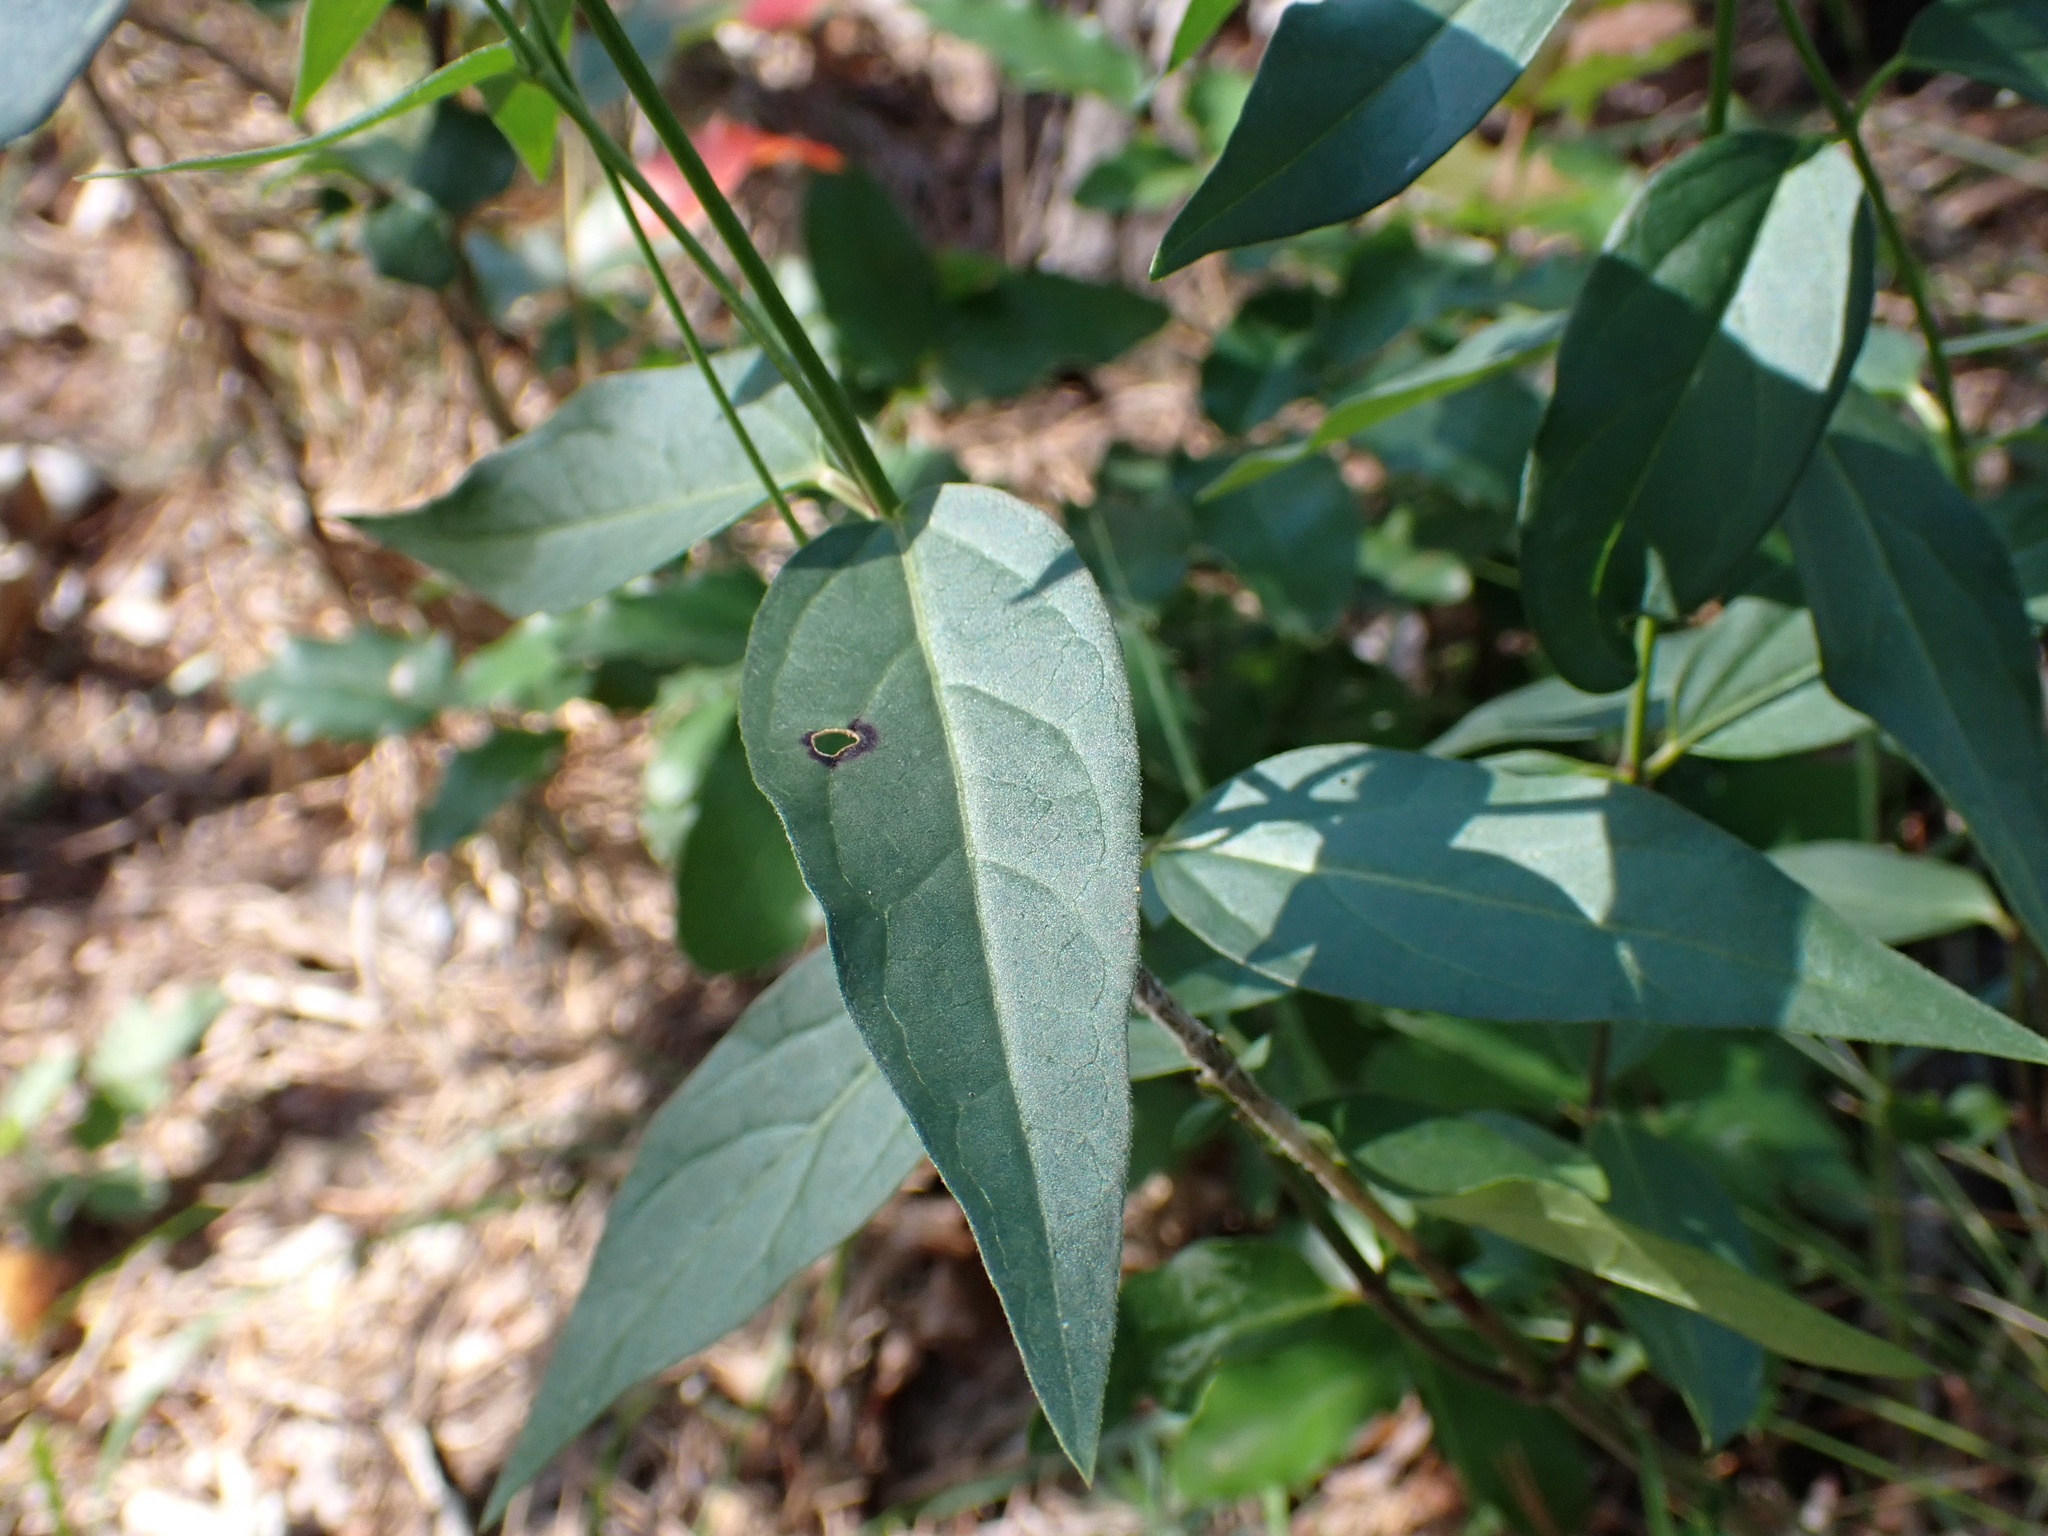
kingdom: Plantae
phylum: Tracheophyta
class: Magnoliopsida
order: Gentianales
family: Apocynaceae
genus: Vincetoxicum
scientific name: Vincetoxicum hirundinaria
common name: White swallowwort
